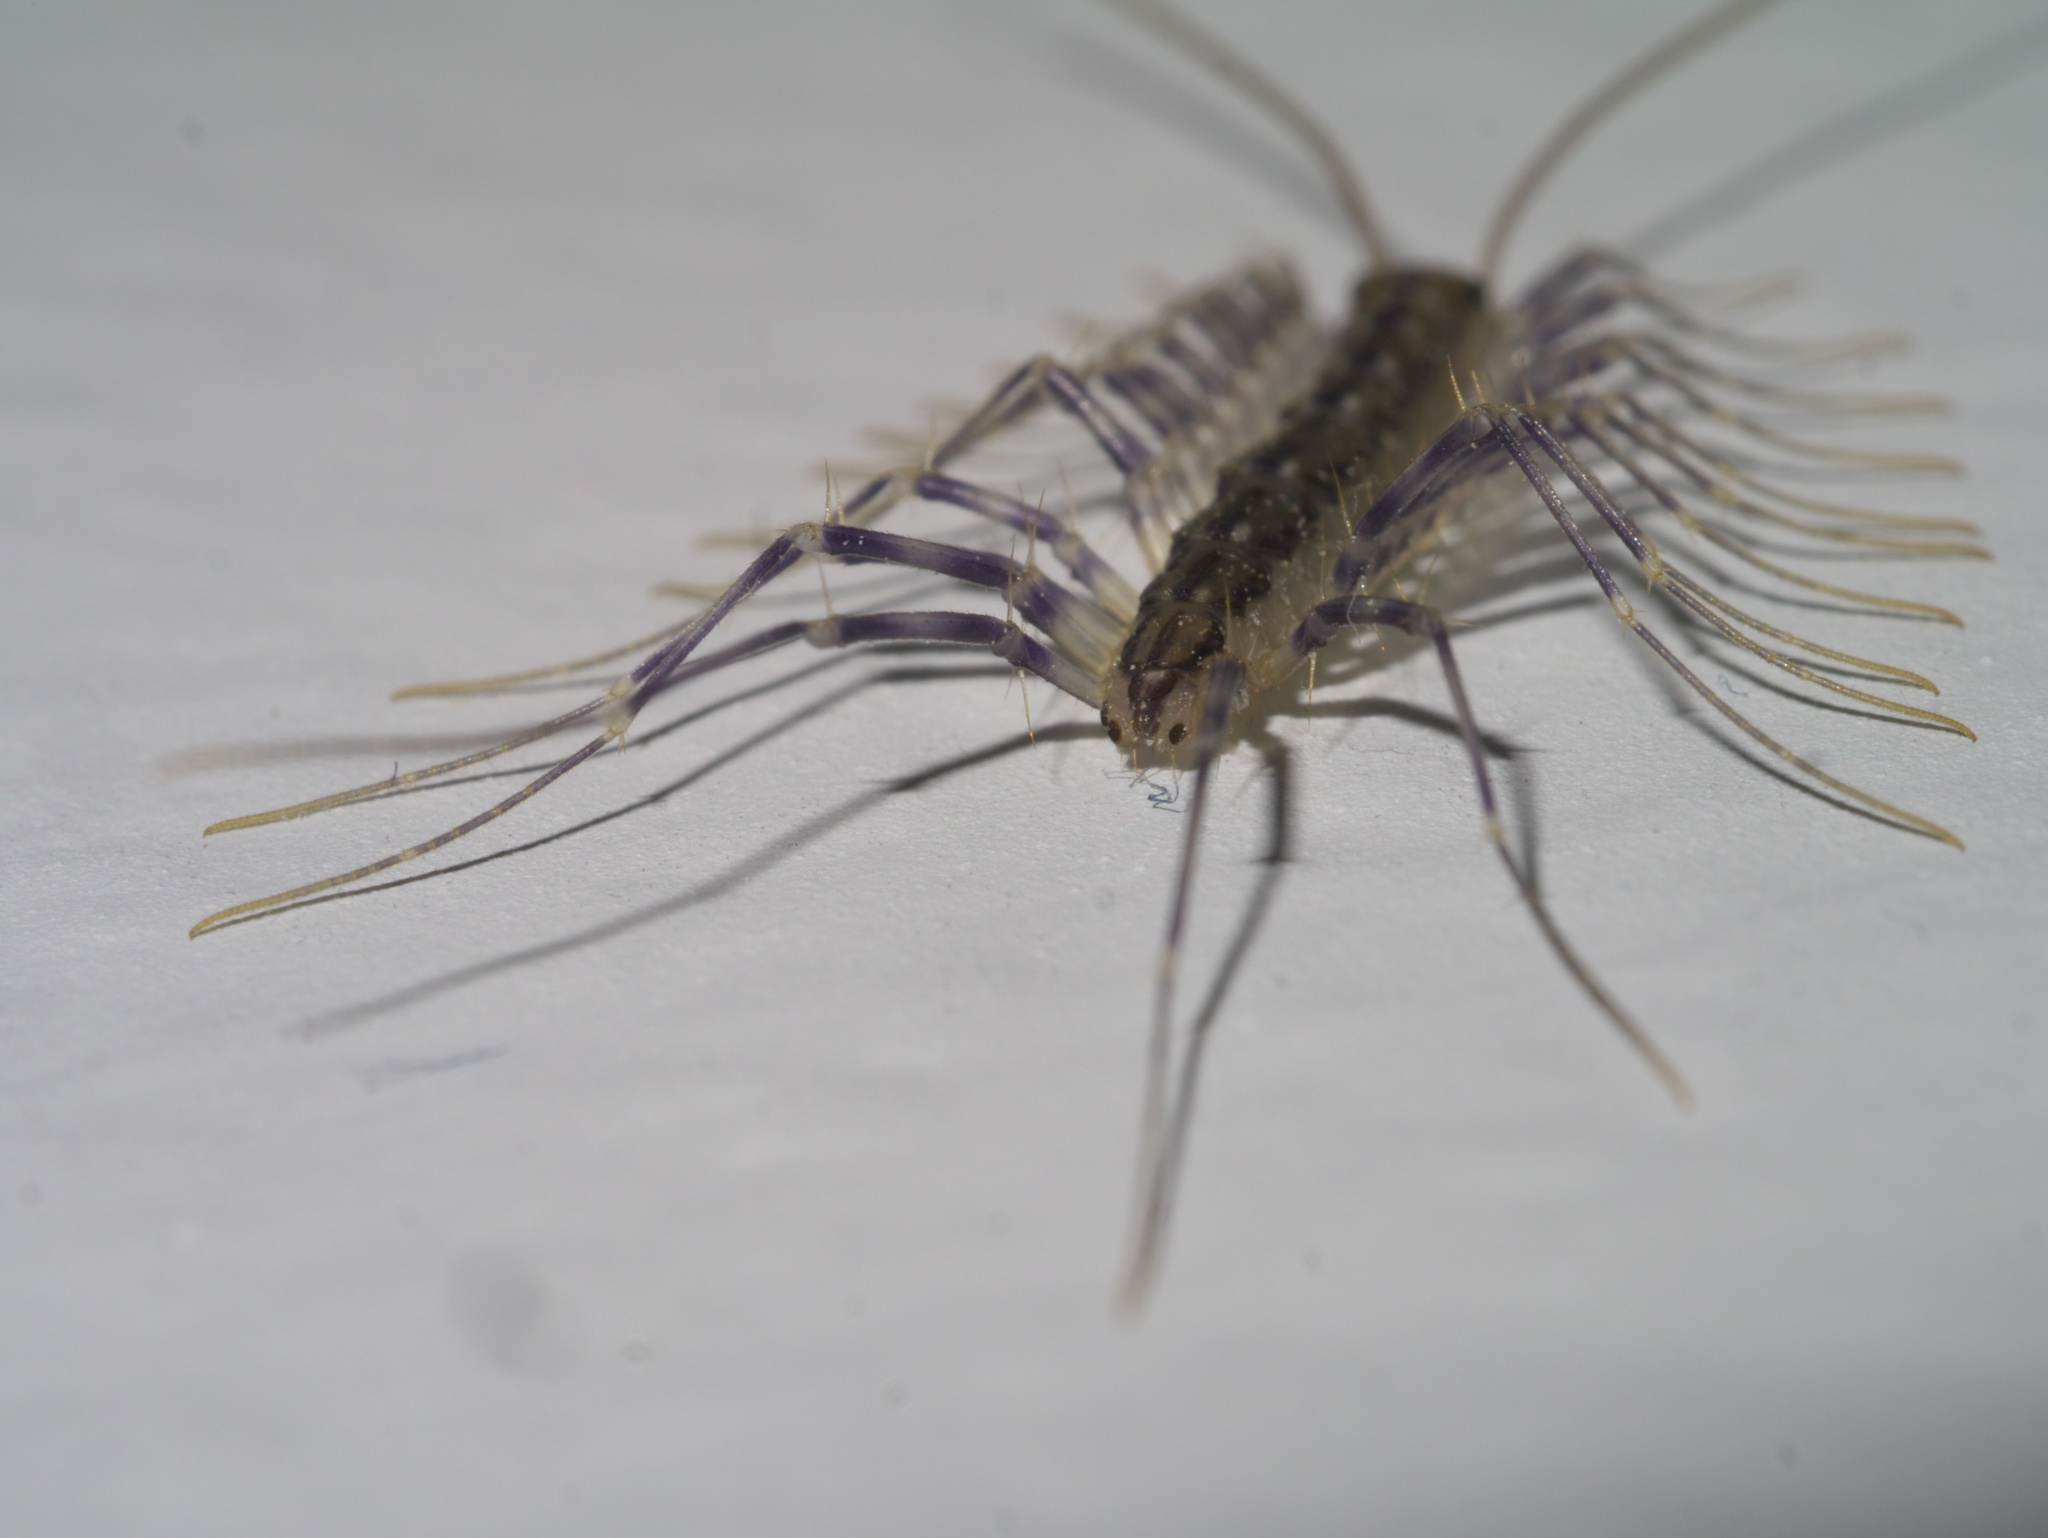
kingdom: Animalia
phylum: Arthropoda
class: Chilopoda
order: Scutigeromorpha
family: Scutigeridae
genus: Scutigera
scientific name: Scutigera coleoptrata
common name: House centipede
